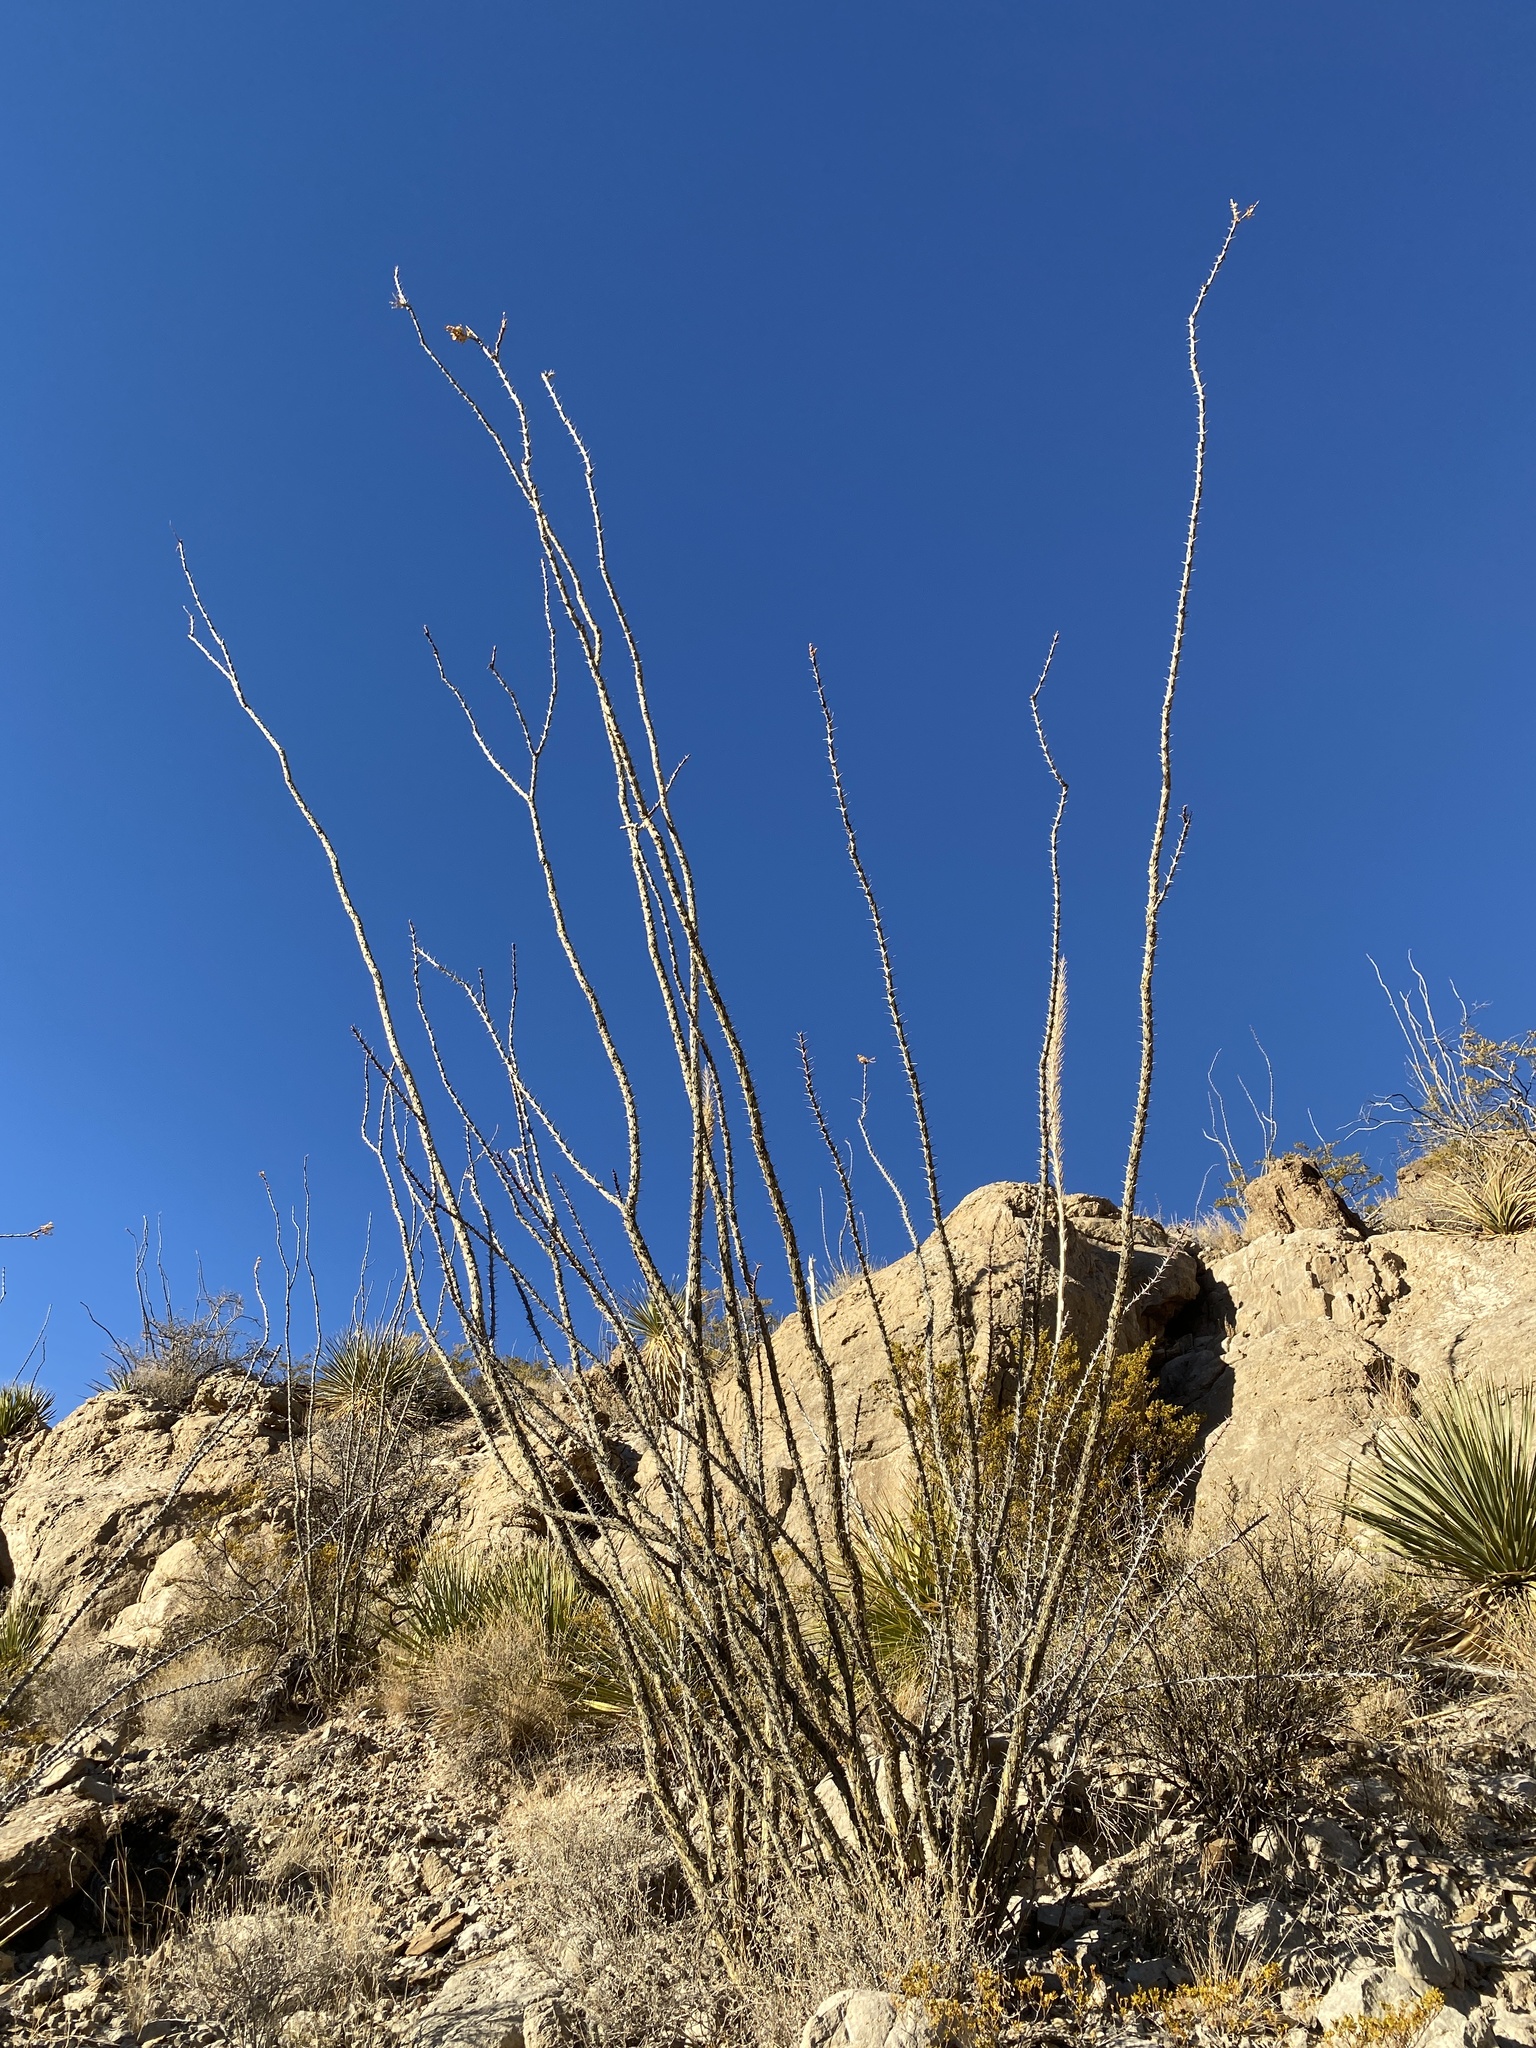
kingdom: Plantae
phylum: Tracheophyta
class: Magnoliopsida
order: Ericales
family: Fouquieriaceae
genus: Fouquieria
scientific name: Fouquieria splendens
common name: Vine-cactus
